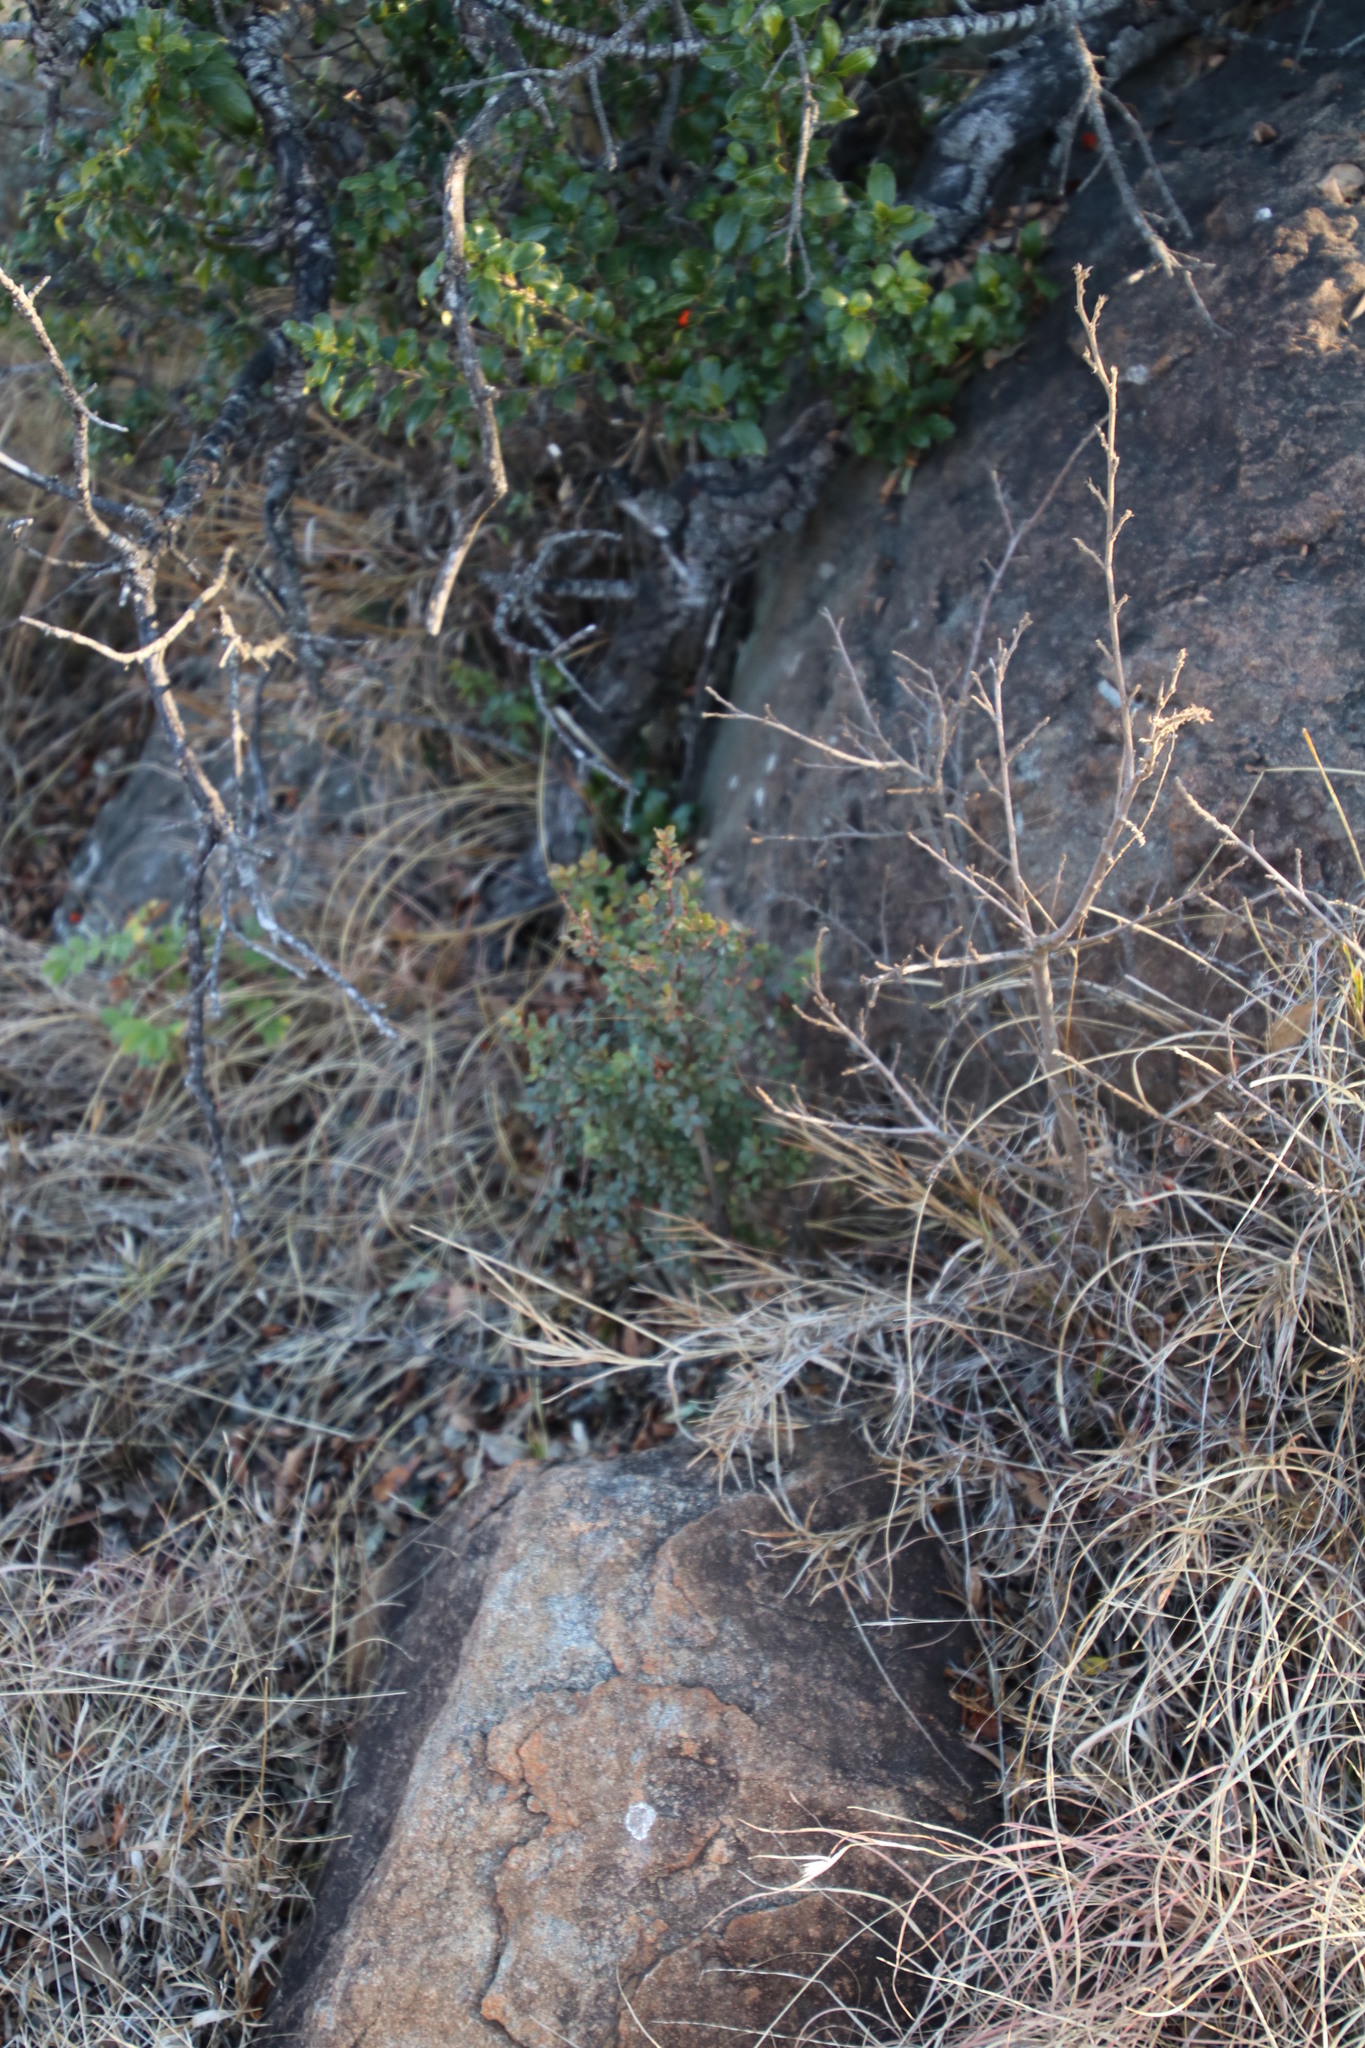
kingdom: Plantae
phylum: Tracheophyta
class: Magnoliopsida
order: Ericales
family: Primulaceae
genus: Myrsine
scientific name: Myrsine africana
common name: African-boxwood
